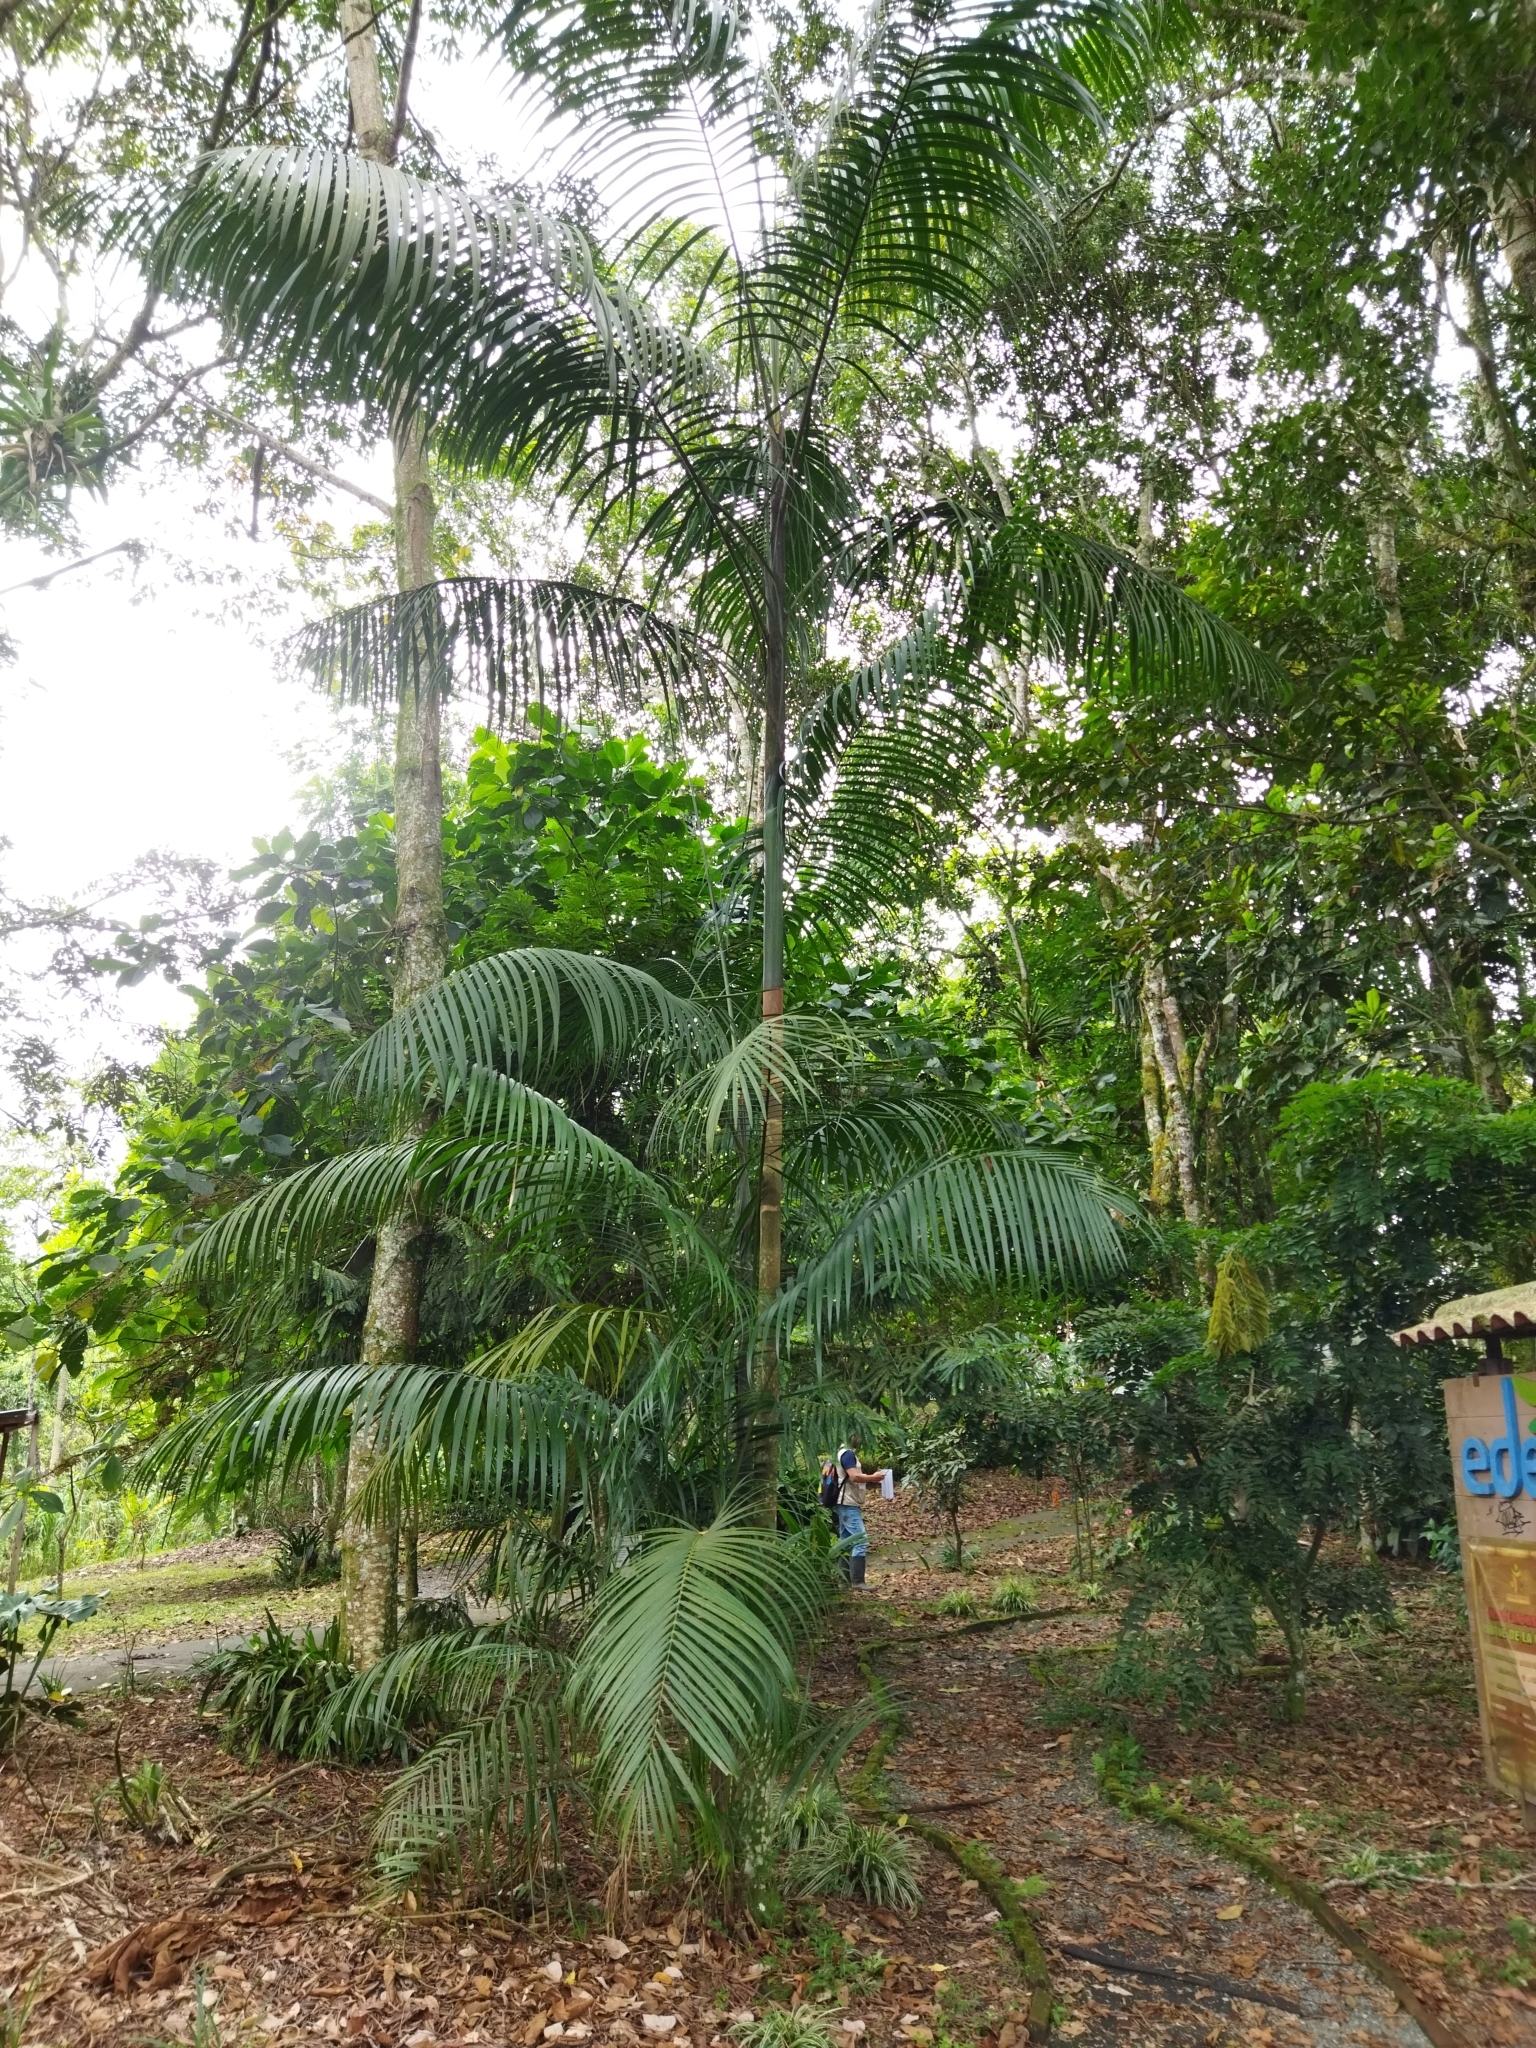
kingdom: Plantae
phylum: Tracheophyta
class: Liliopsida
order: Arecales
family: Arecaceae
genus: Euterpe
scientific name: Euterpe precatoria
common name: Mountain-cabbage
